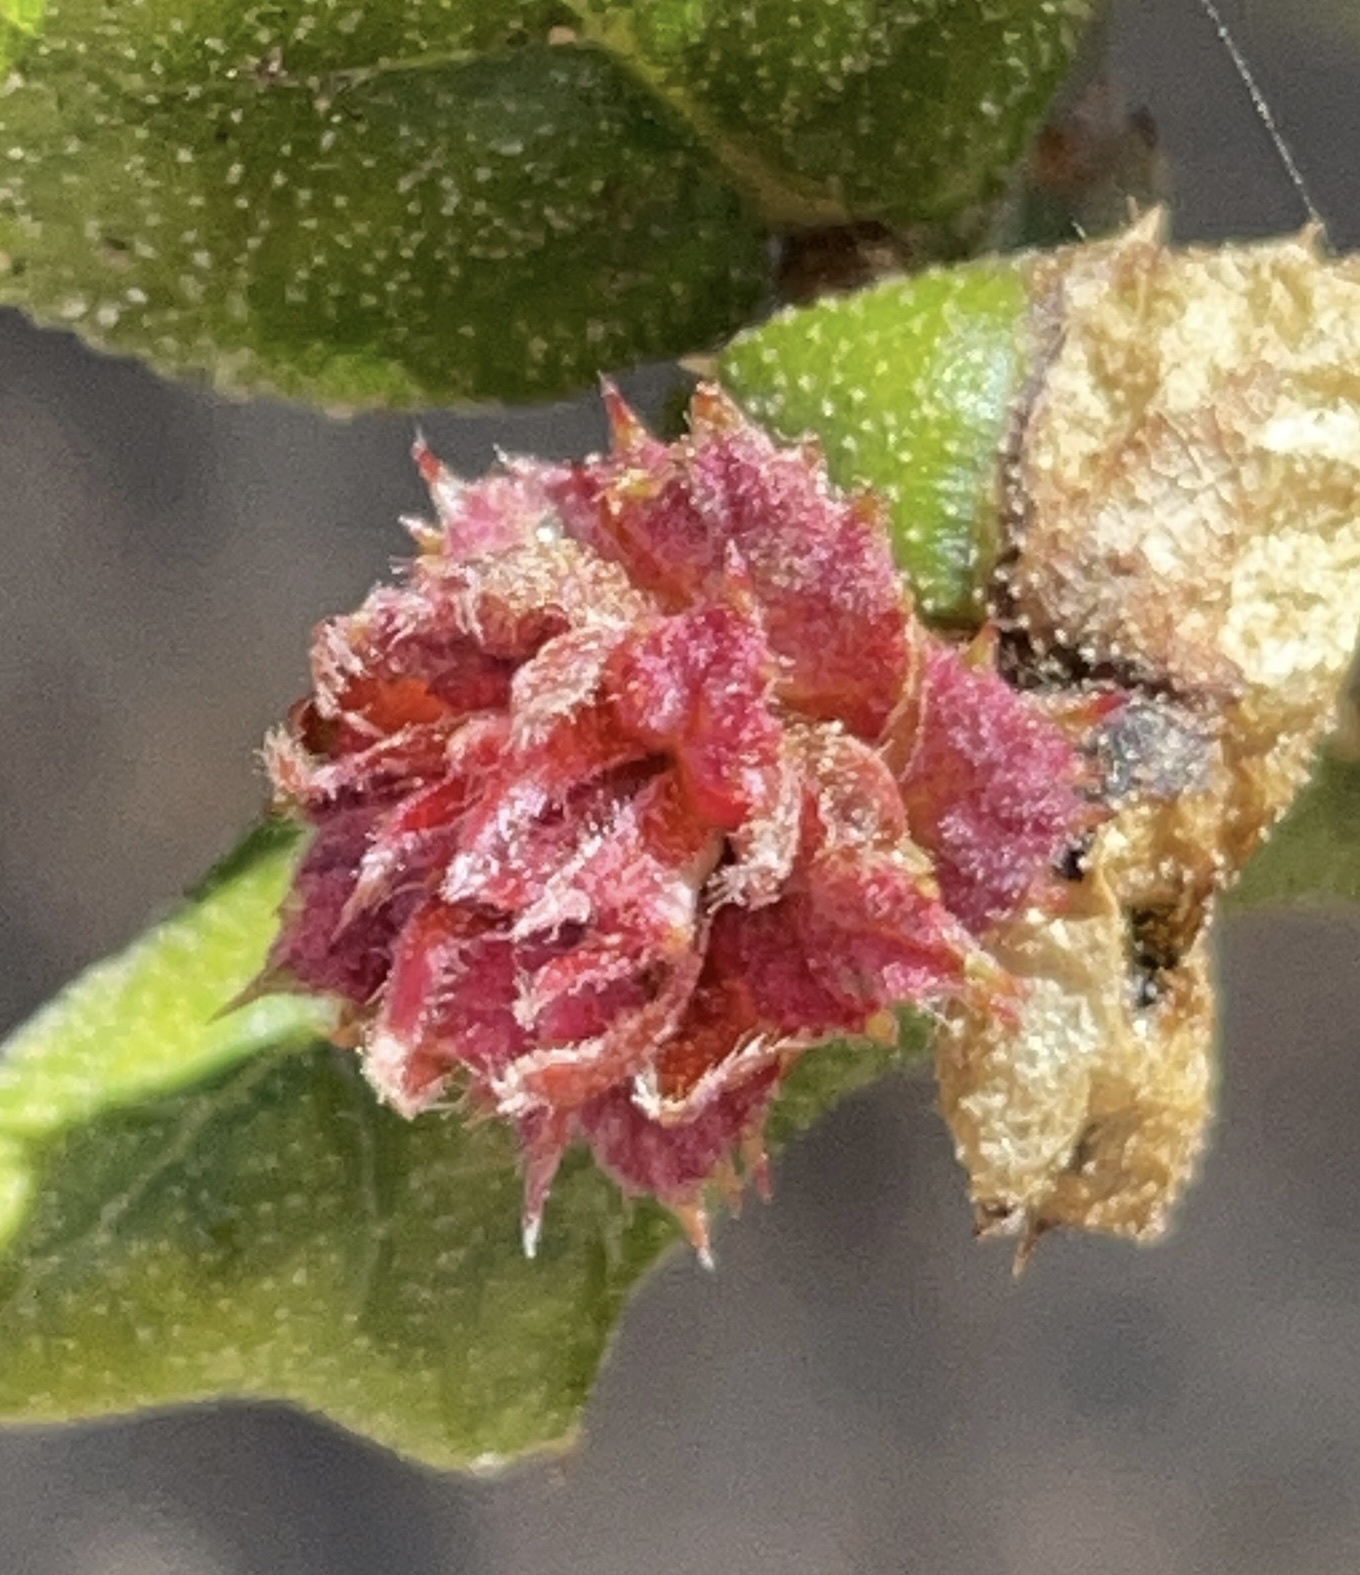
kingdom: Plantae
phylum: Tracheophyta
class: Magnoliopsida
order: Fagales
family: Fagaceae
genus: Quercus
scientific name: Quercus agrifolia
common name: California live oak
